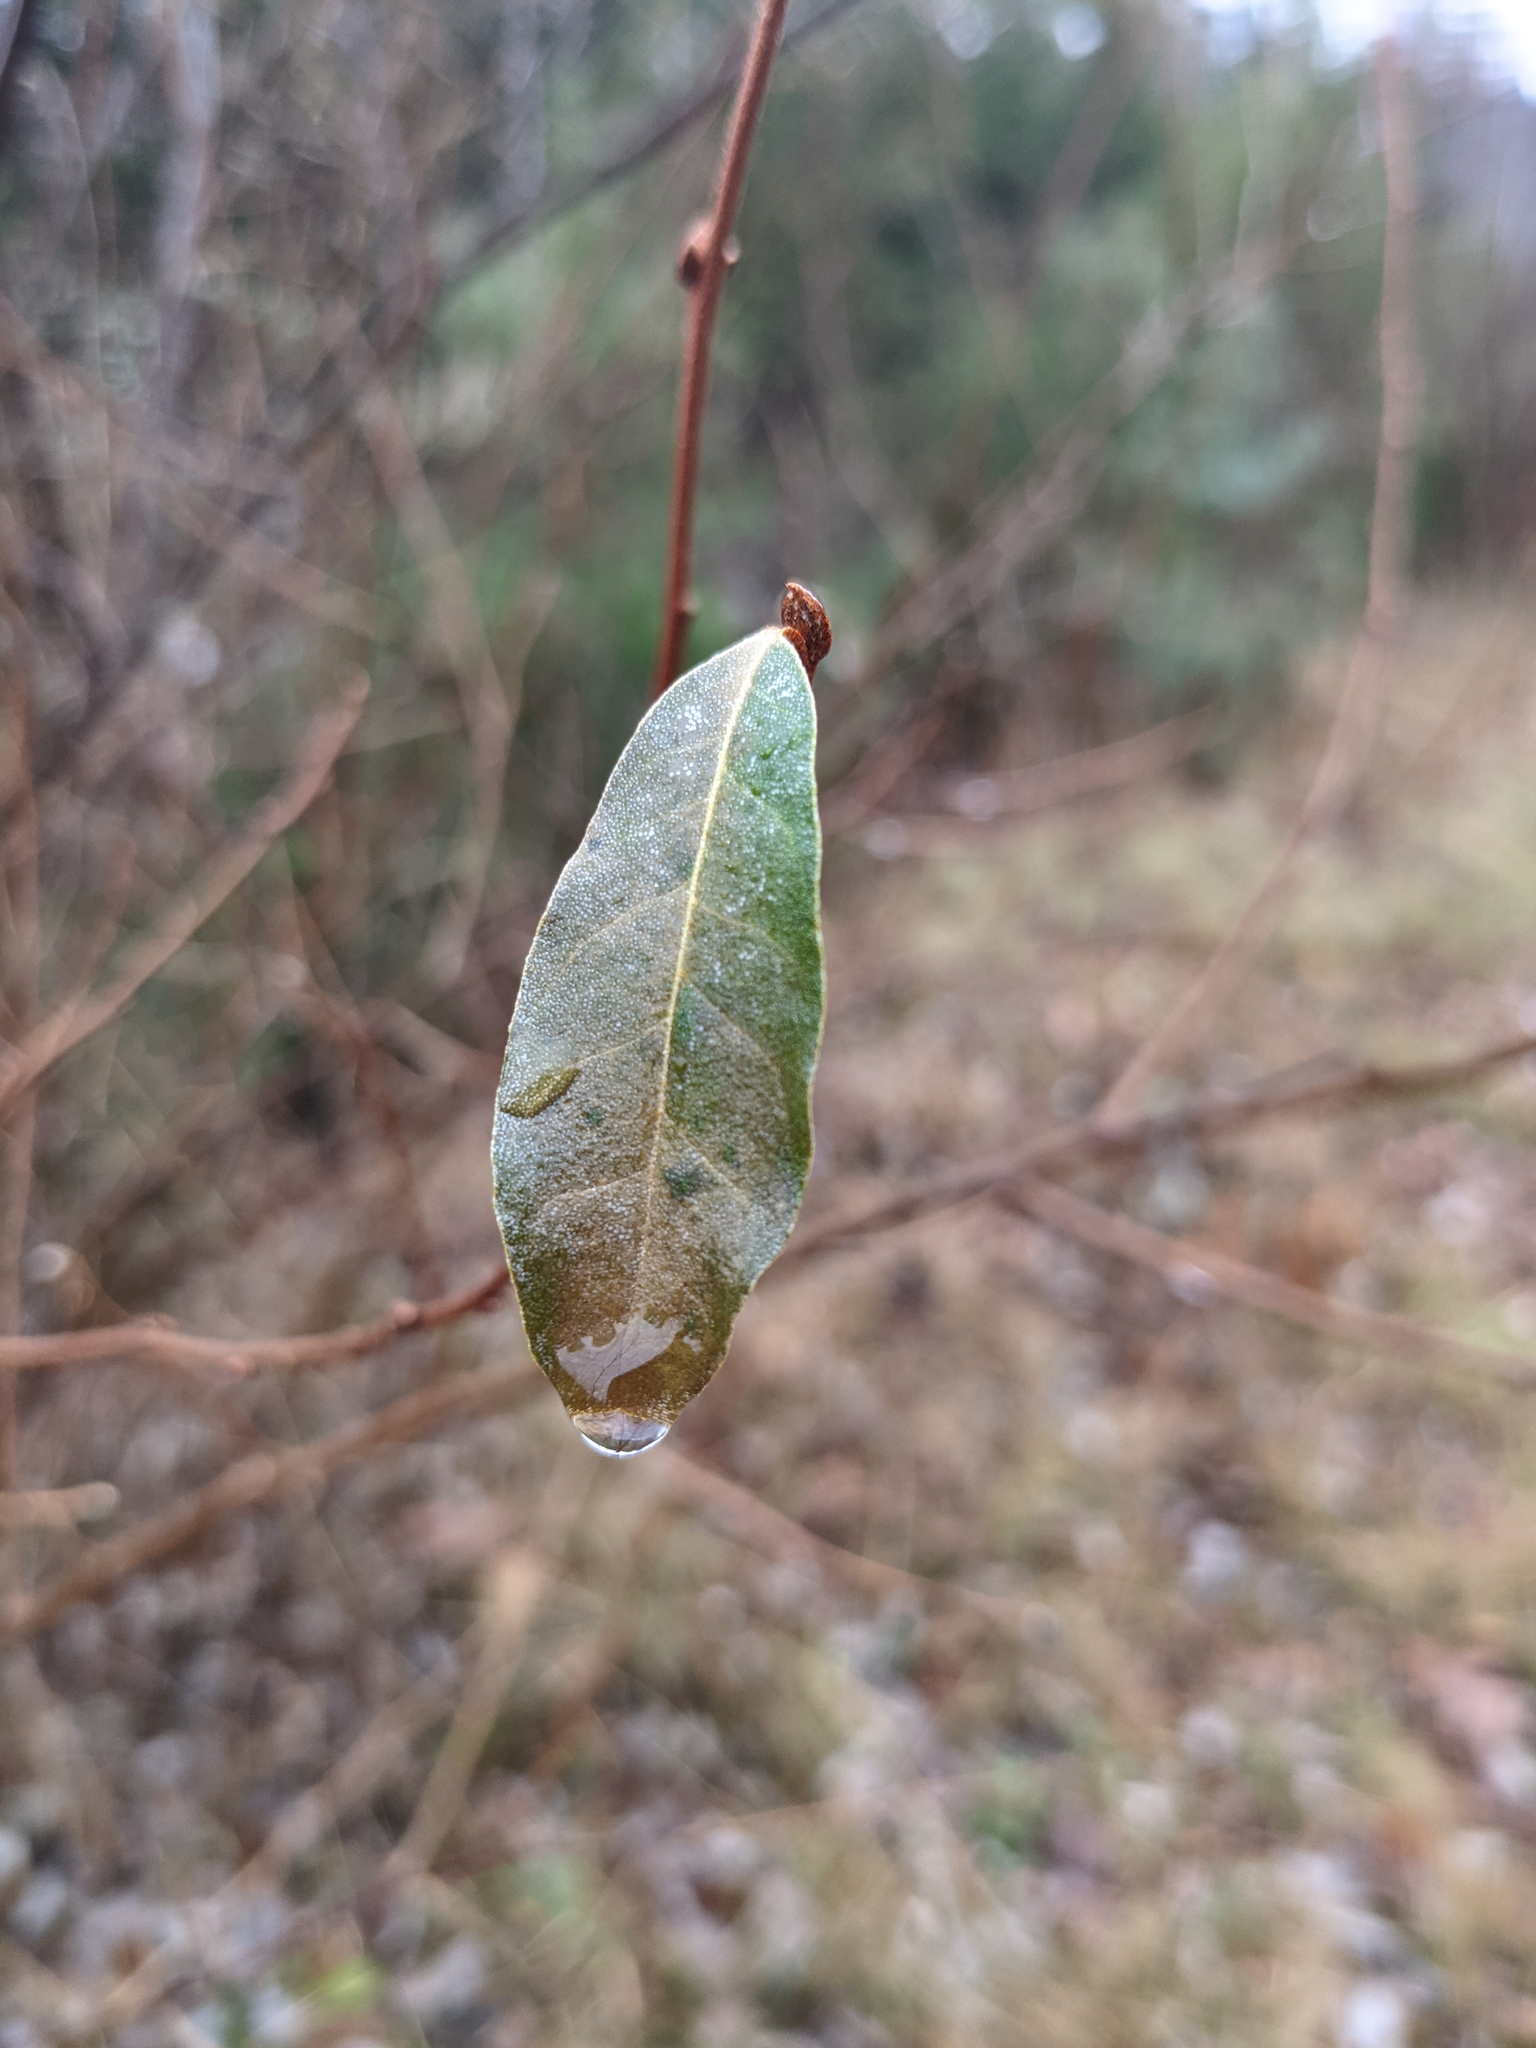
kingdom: Plantae
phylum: Tracheophyta
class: Magnoliopsida
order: Rosales
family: Elaeagnaceae
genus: Elaeagnus
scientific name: Elaeagnus umbellata
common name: Autumn olive
